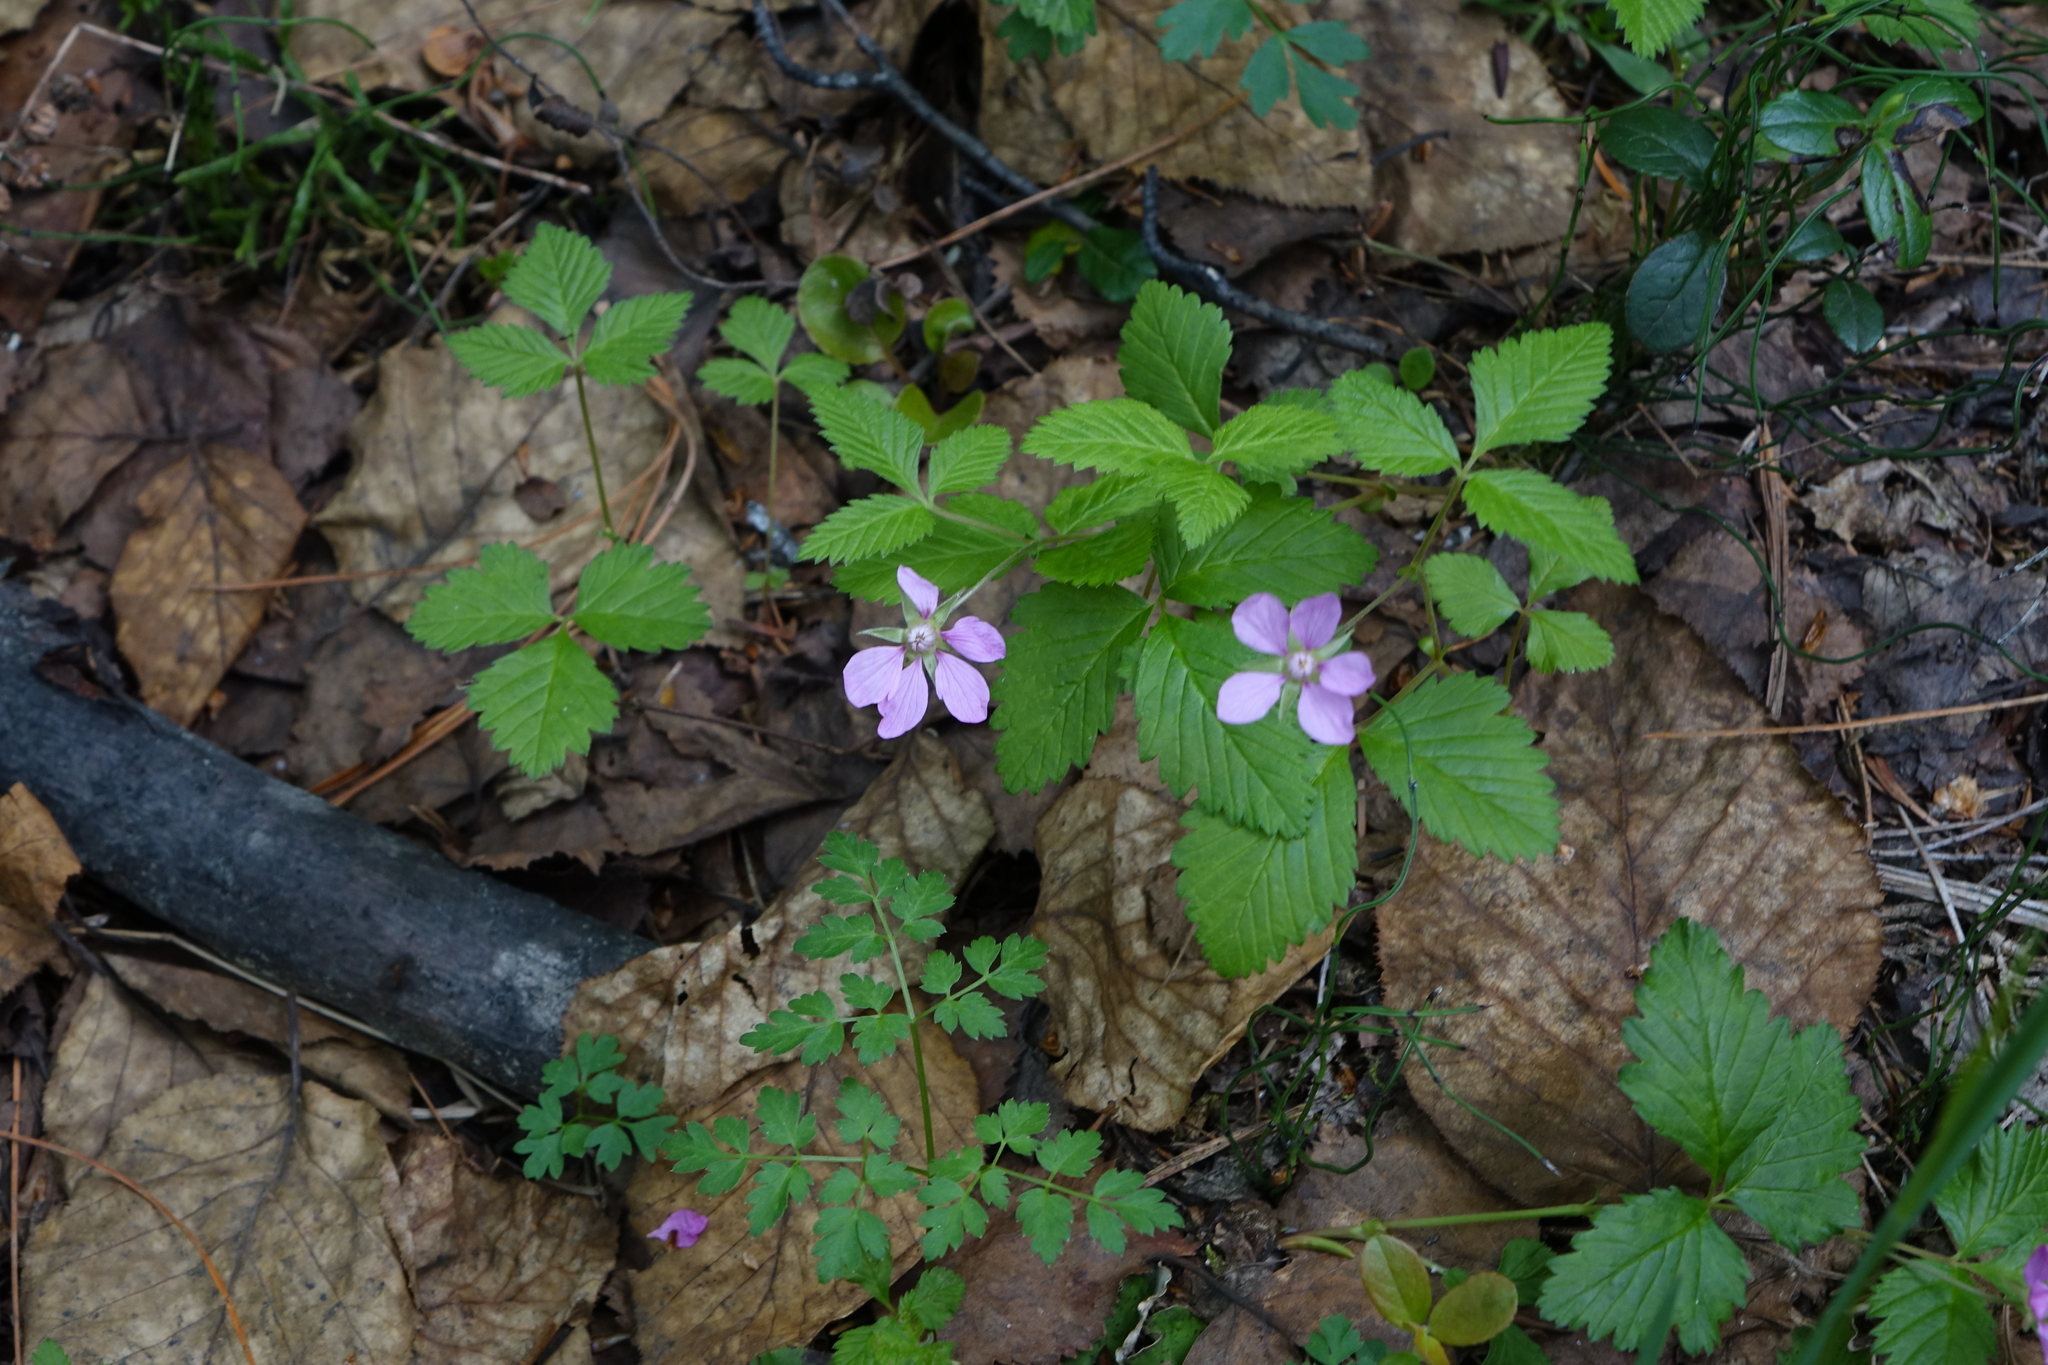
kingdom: Plantae
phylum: Tracheophyta
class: Magnoliopsida
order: Rosales
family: Rosaceae
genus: Rubus
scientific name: Rubus arcticus
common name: Arctic bramble
